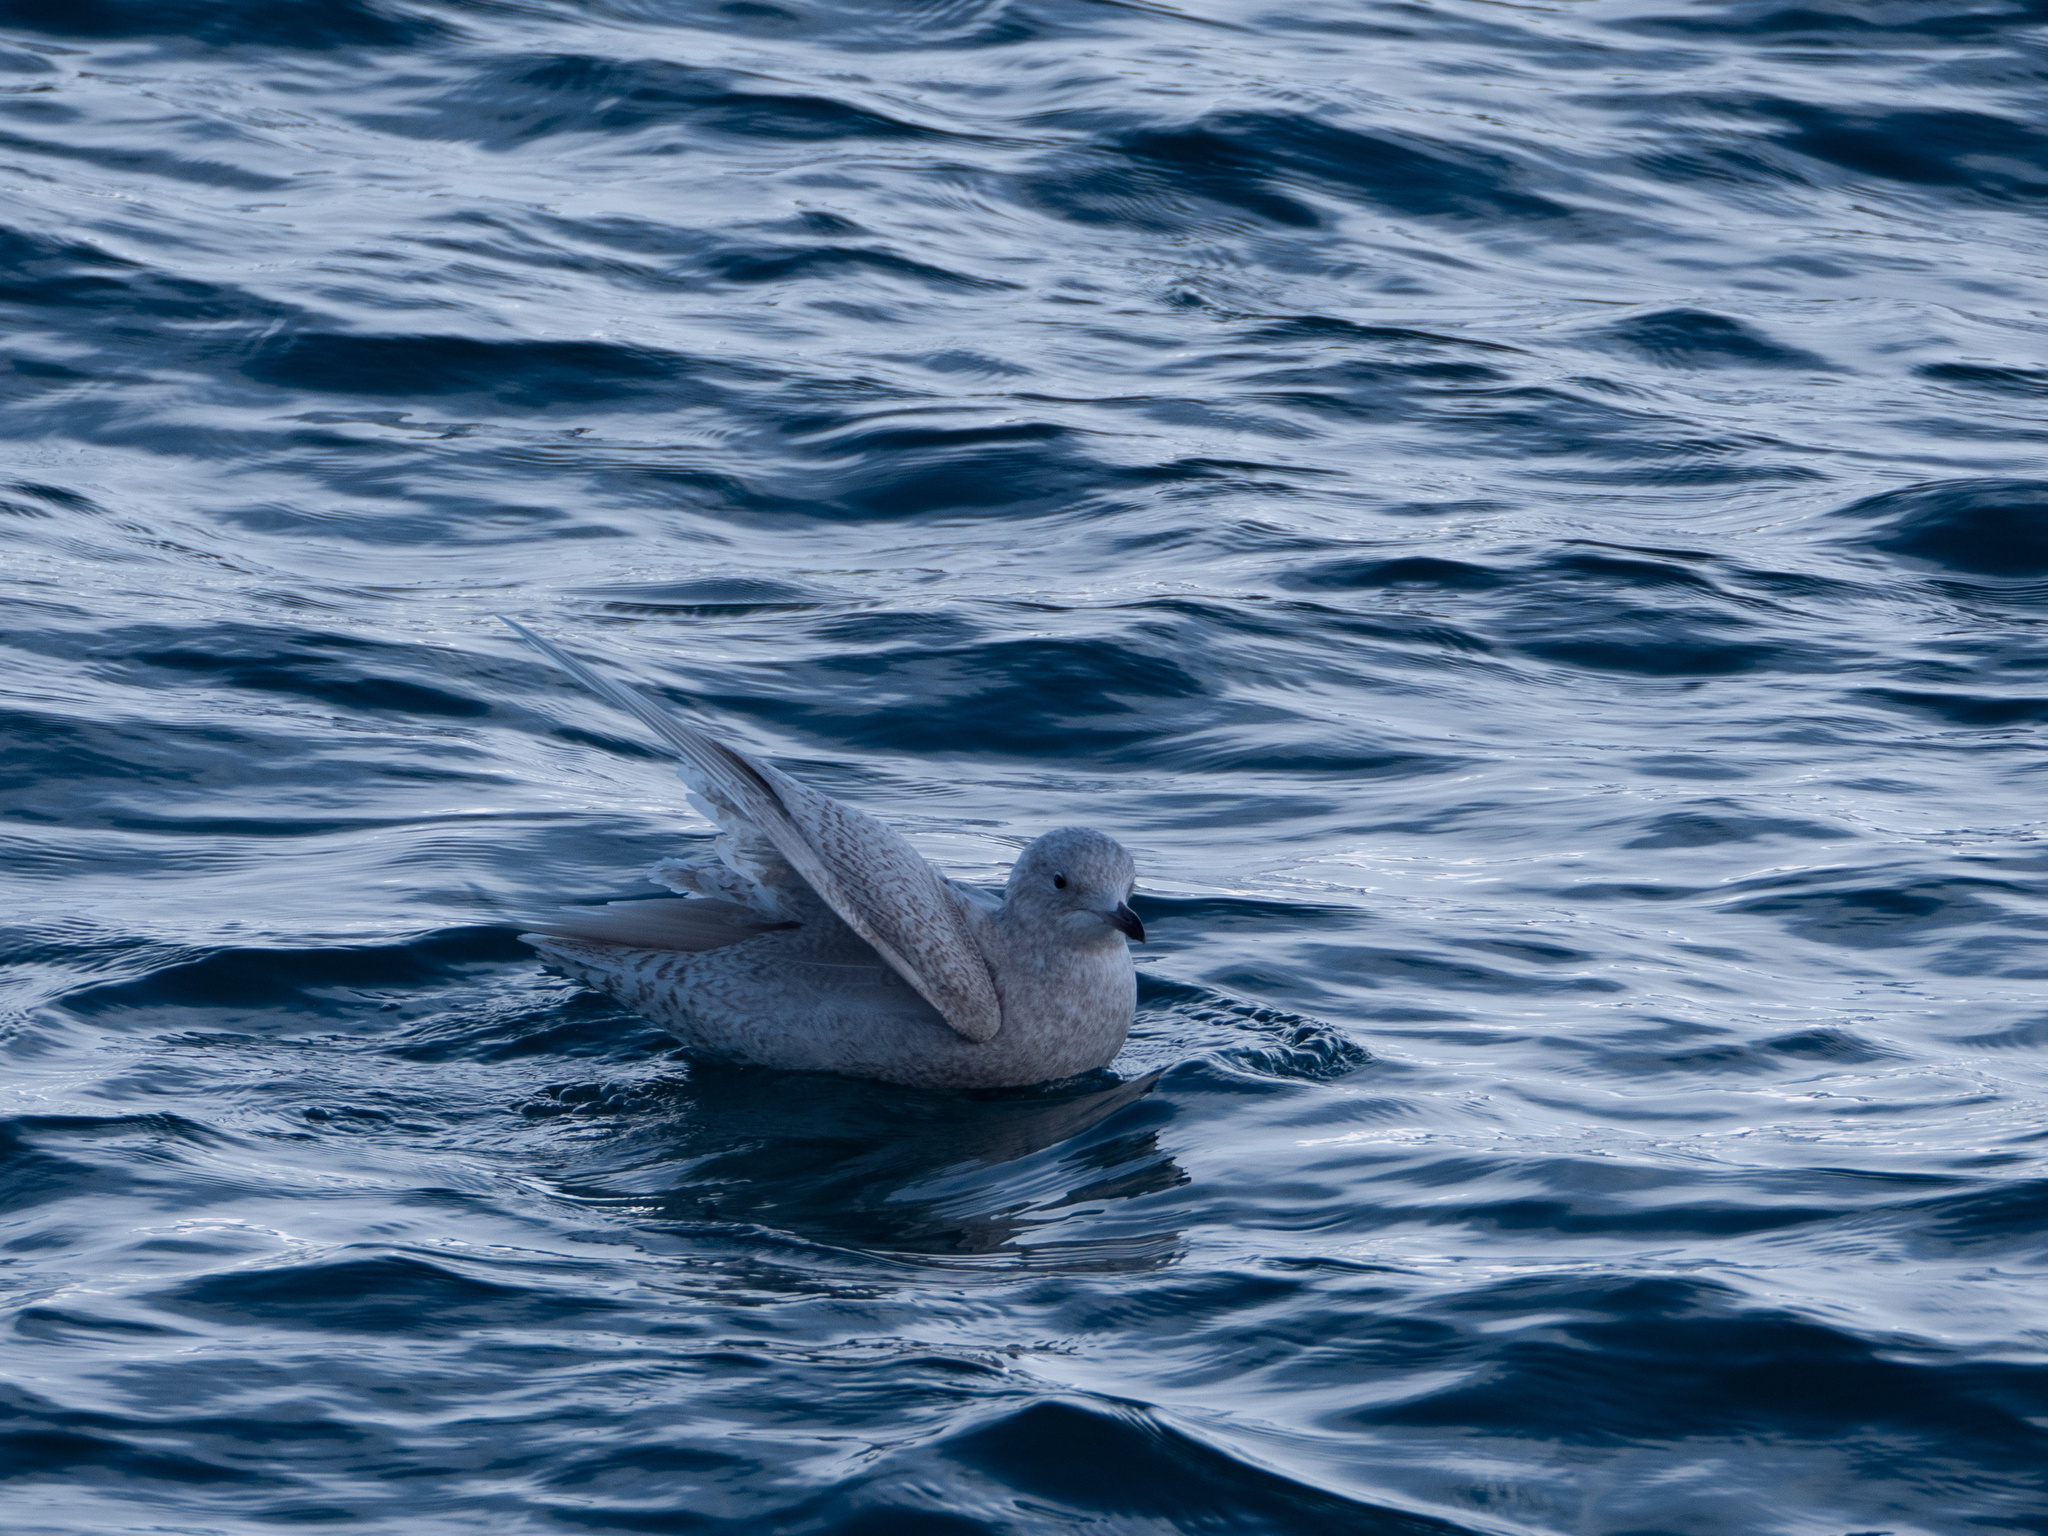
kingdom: Animalia
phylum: Chordata
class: Aves
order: Charadriiformes
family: Laridae
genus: Larus
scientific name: Larus glaucoides
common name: Iceland gull
